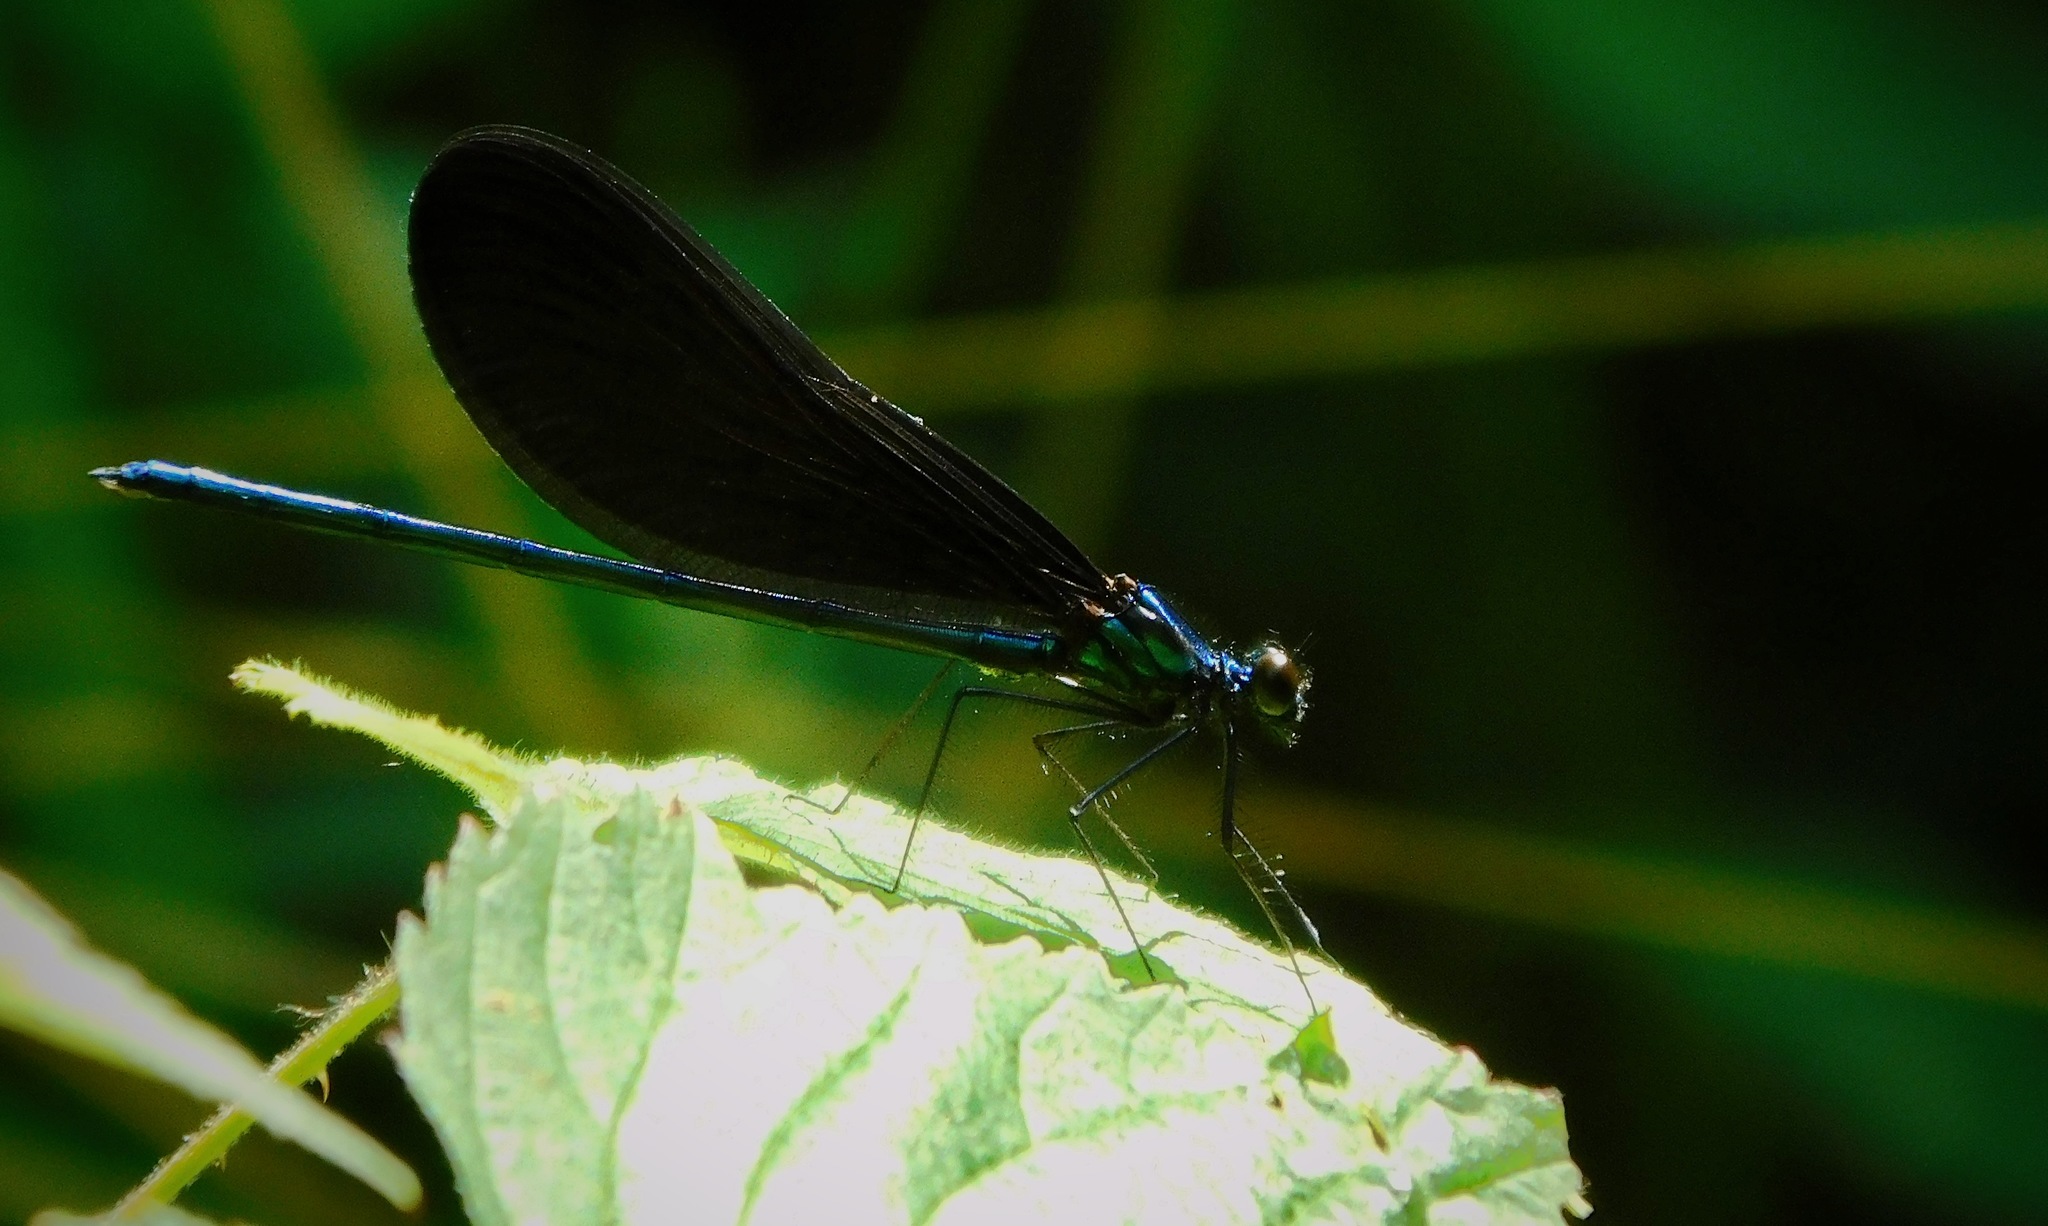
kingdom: Animalia
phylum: Arthropoda
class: Insecta
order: Odonata
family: Calopterygidae
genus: Calopteryx
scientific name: Calopteryx maculata
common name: Ebony jewelwing
